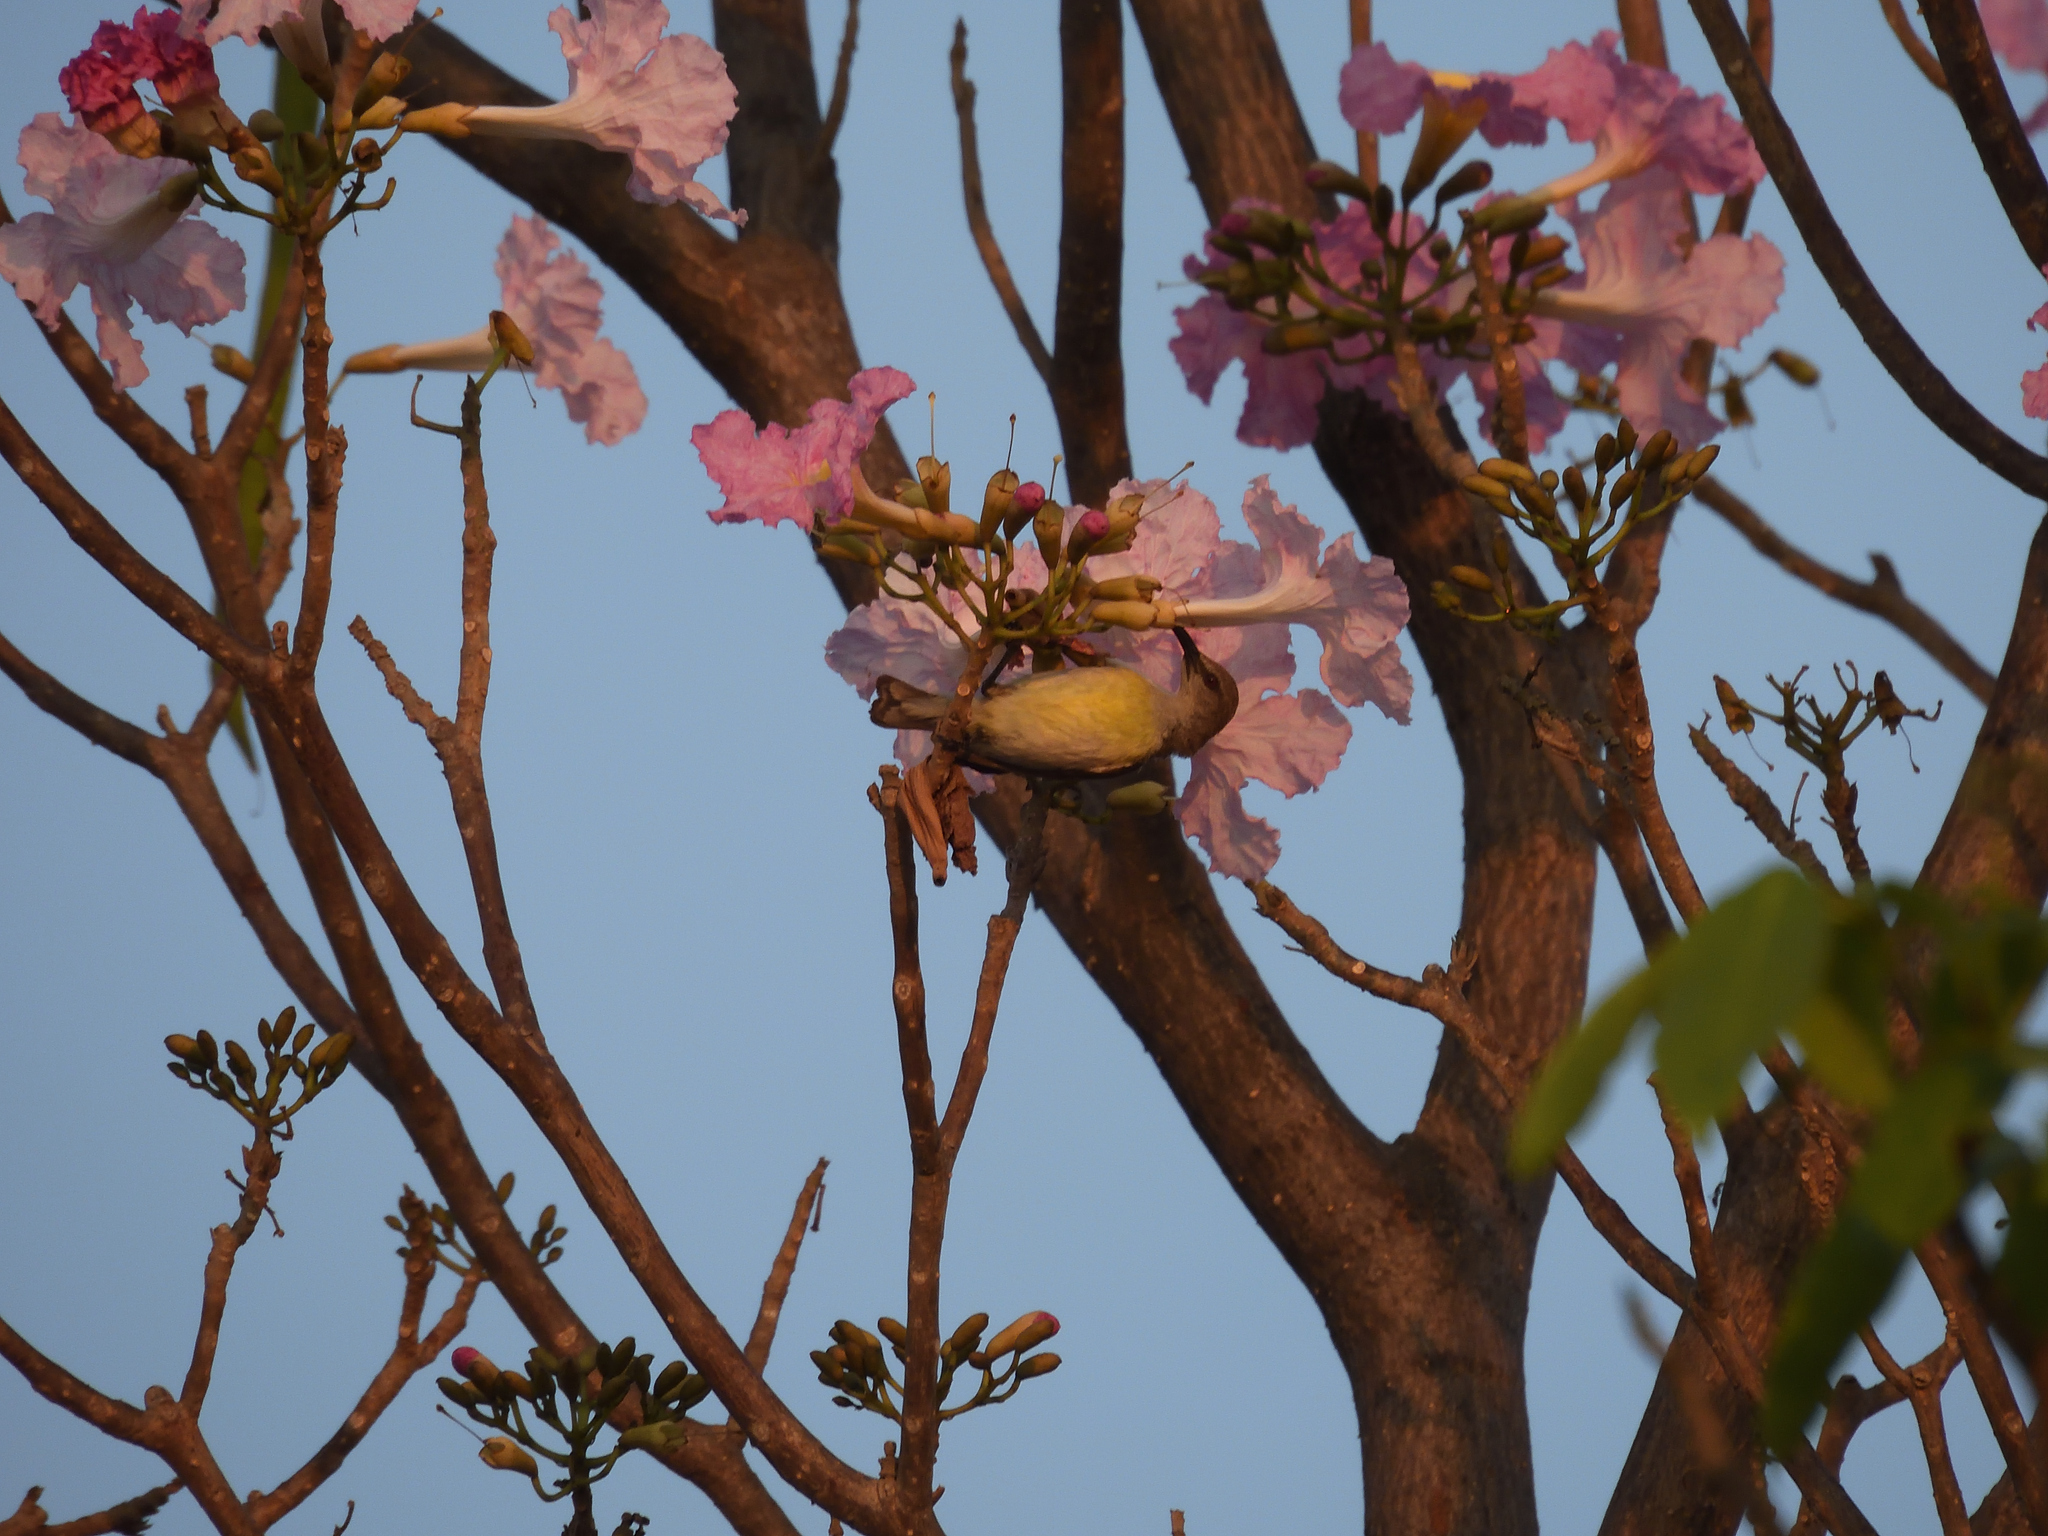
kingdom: Animalia
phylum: Chordata
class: Aves
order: Passeriformes
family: Nectariniidae
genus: Leptocoma
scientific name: Leptocoma zeylonica
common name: Purple-rumped sunbird
